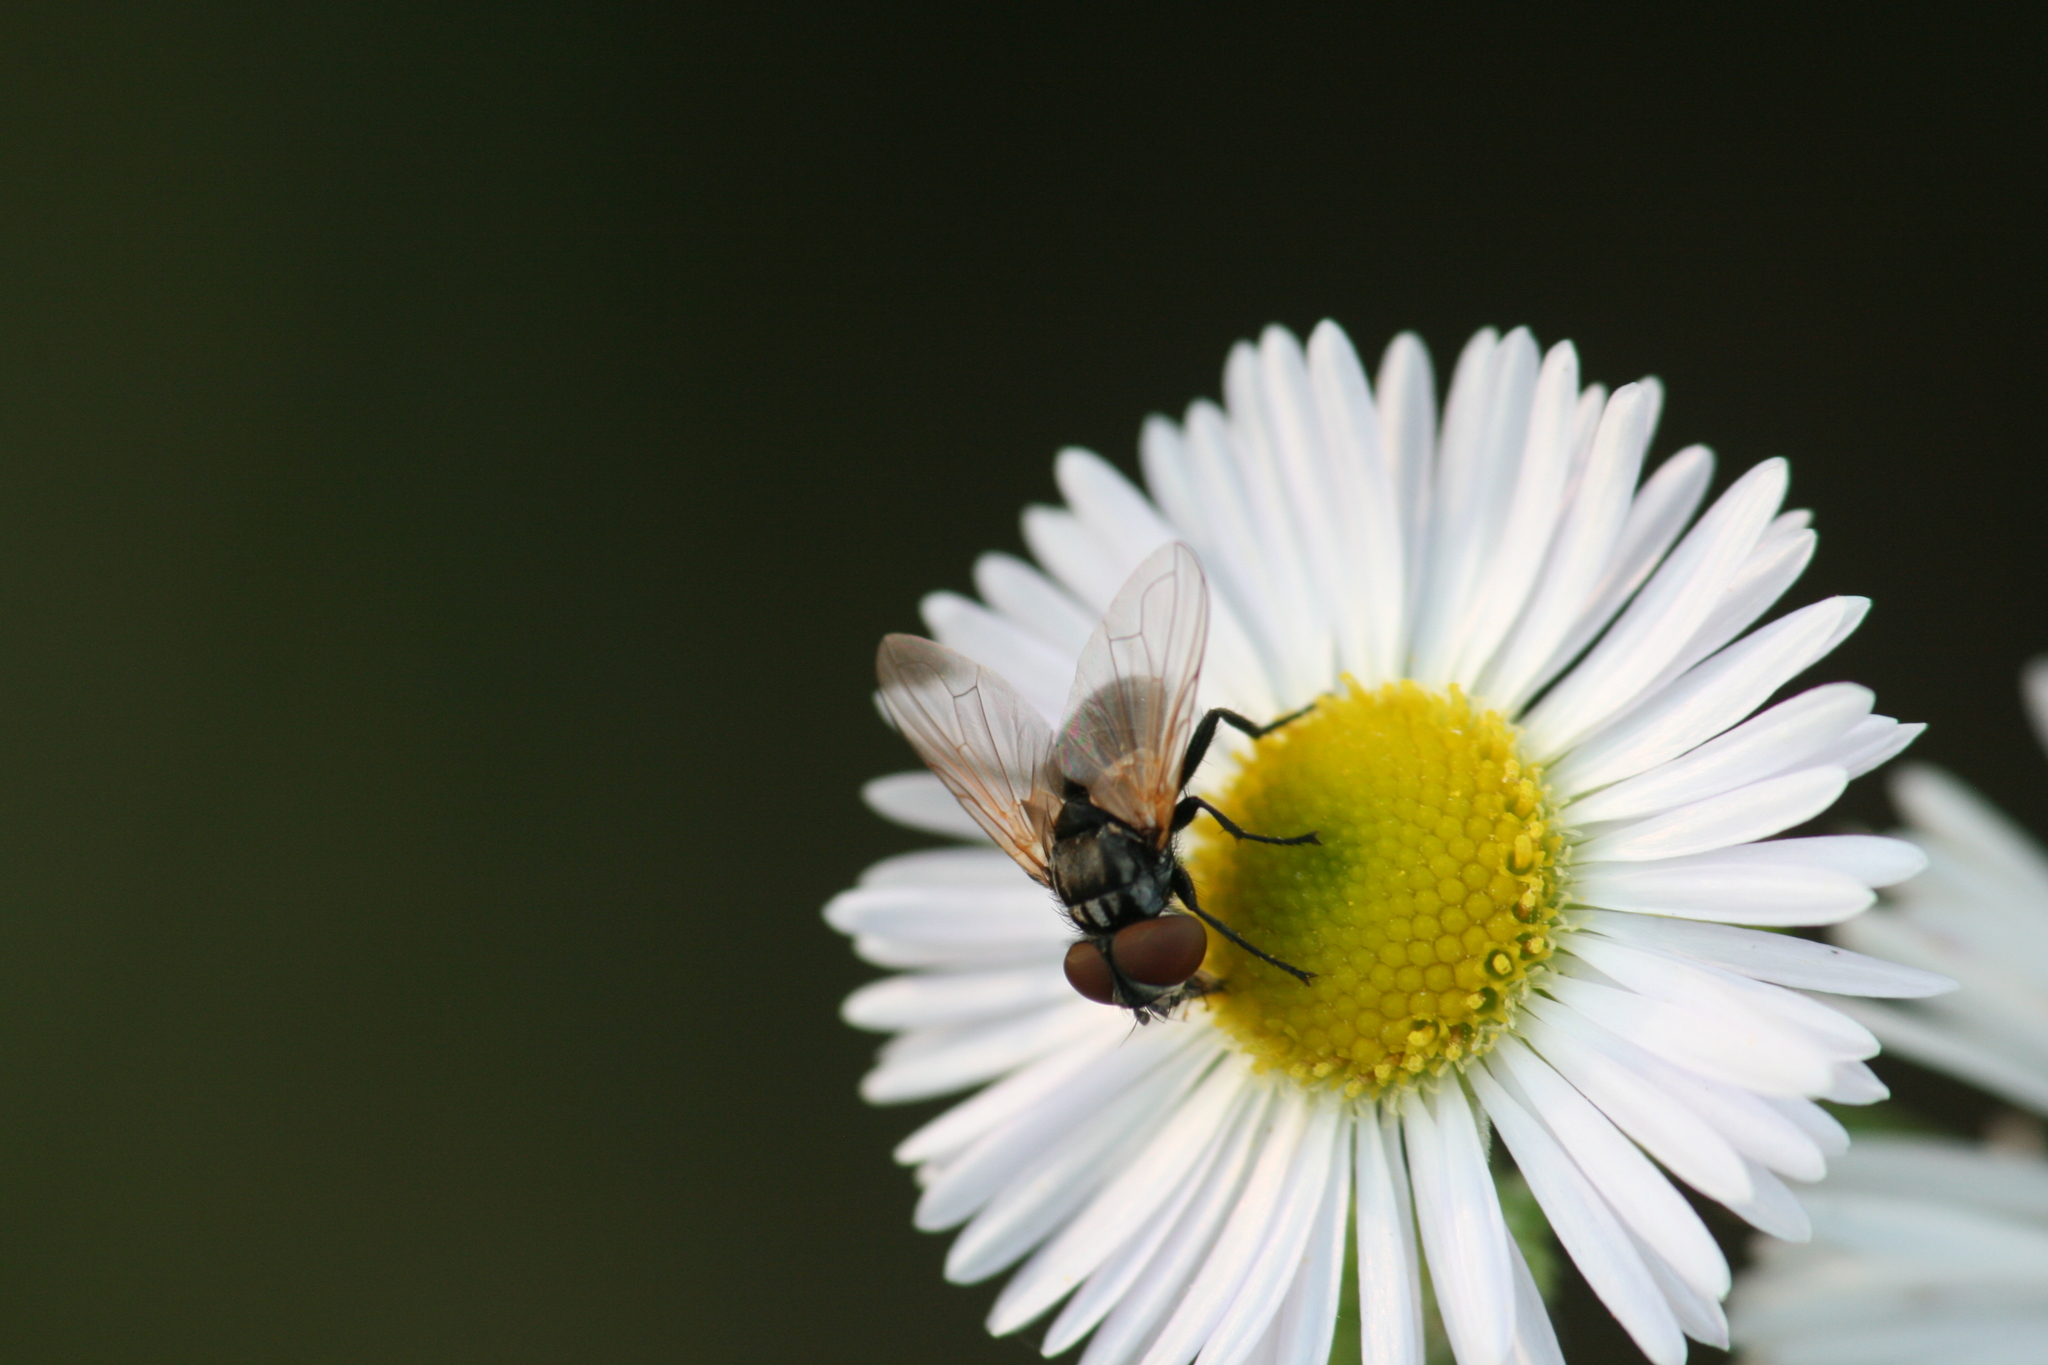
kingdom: Animalia
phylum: Arthropoda
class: Insecta
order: Diptera
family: Tachinidae
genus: Phasia
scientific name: Phasia obesa
